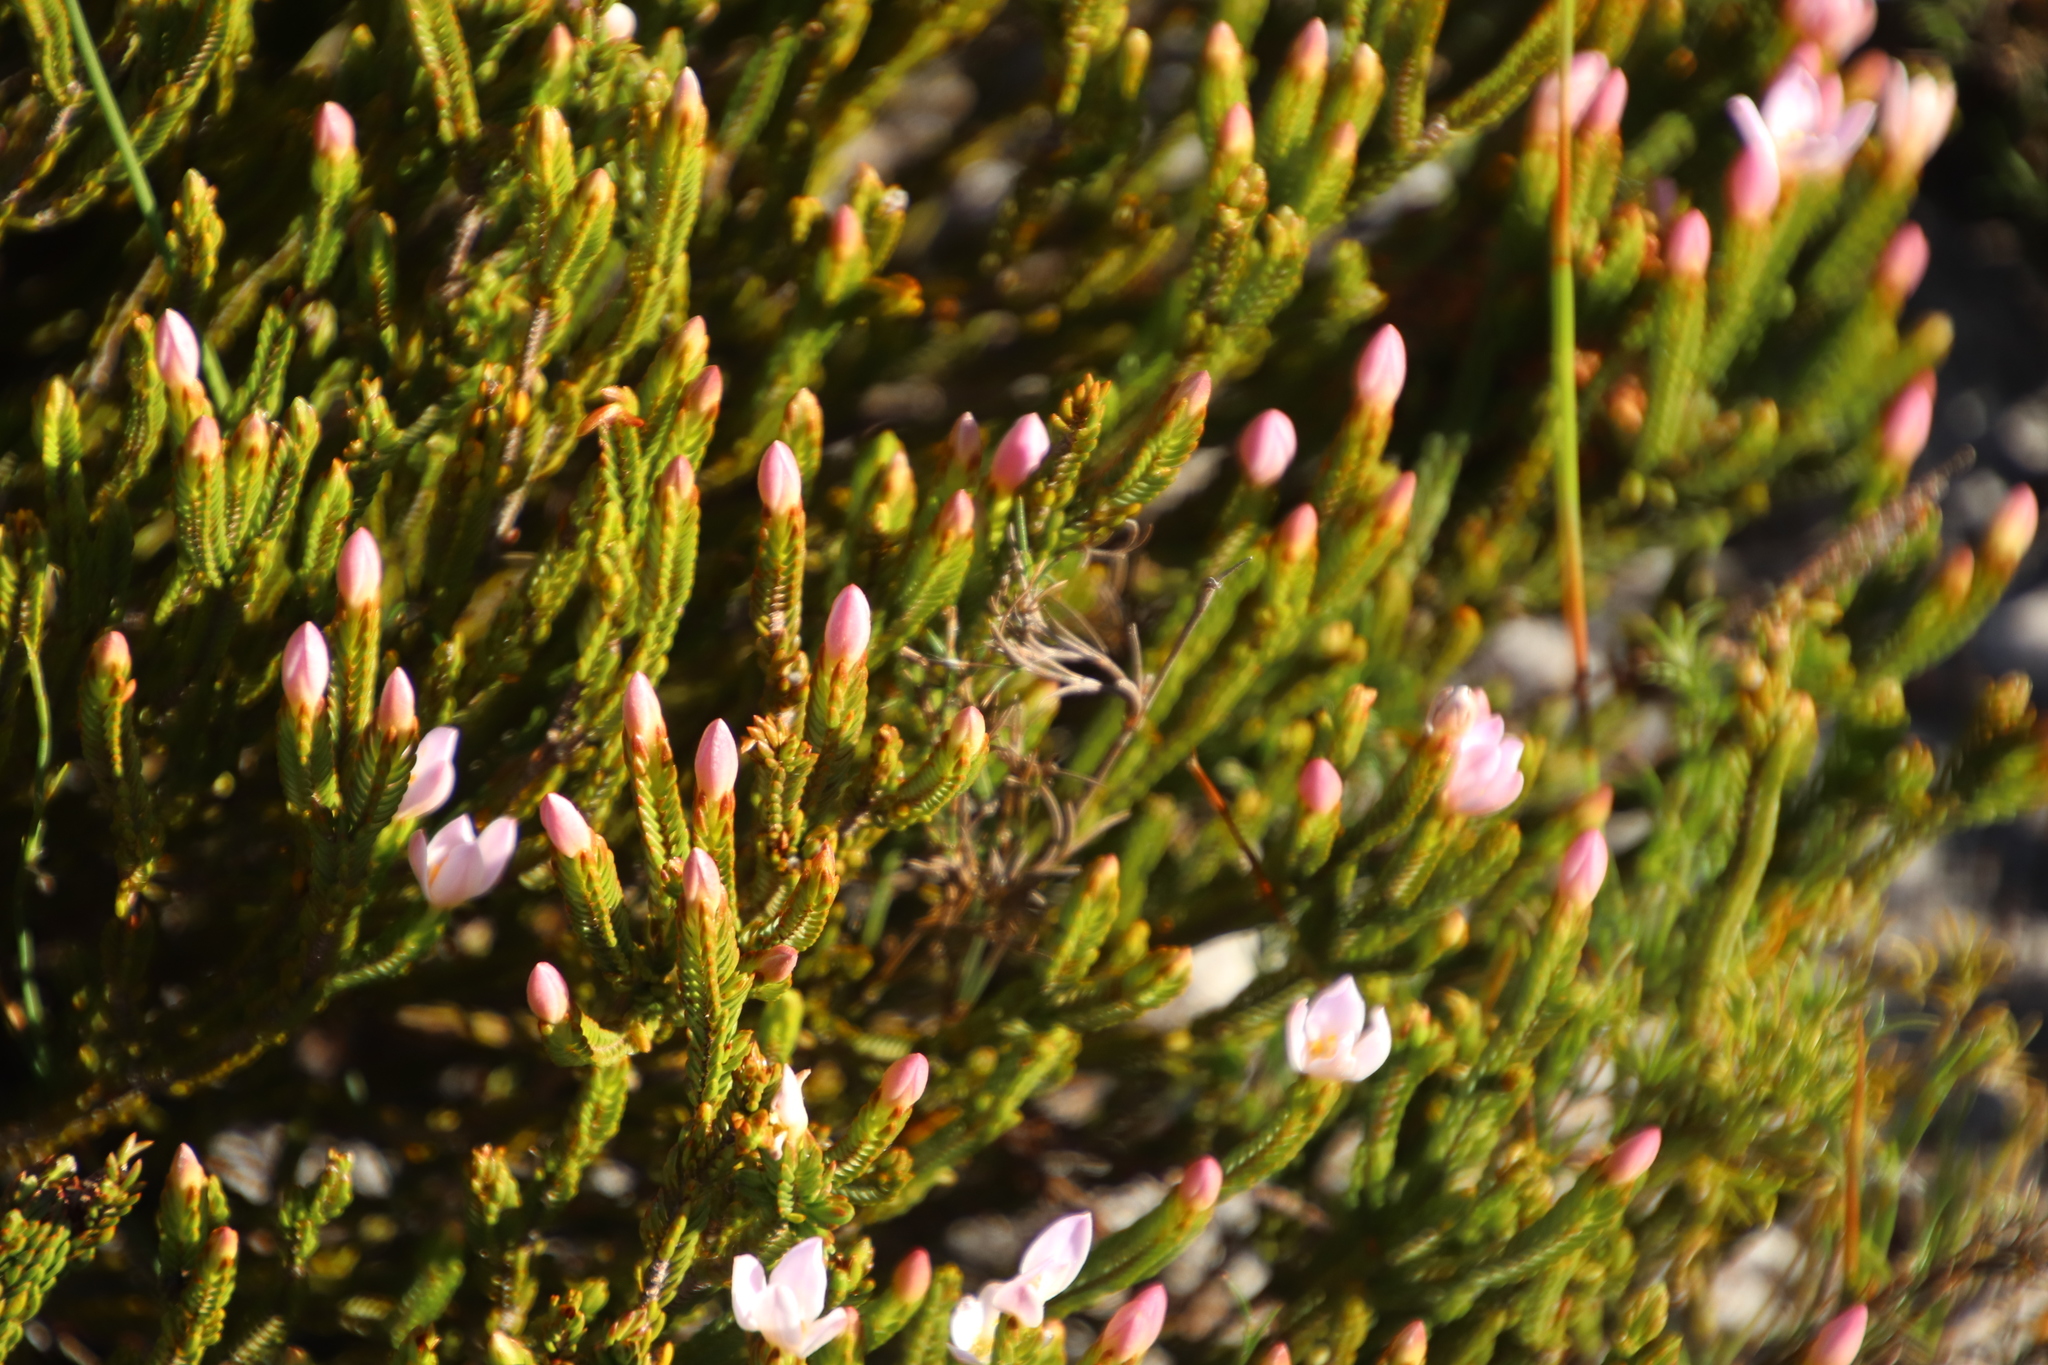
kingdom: Plantae
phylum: Tracheophyta
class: Magnoliopsida
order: Malvales
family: Thymelaeaceae
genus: Lachnaea
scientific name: Lachnaea grandiflora
